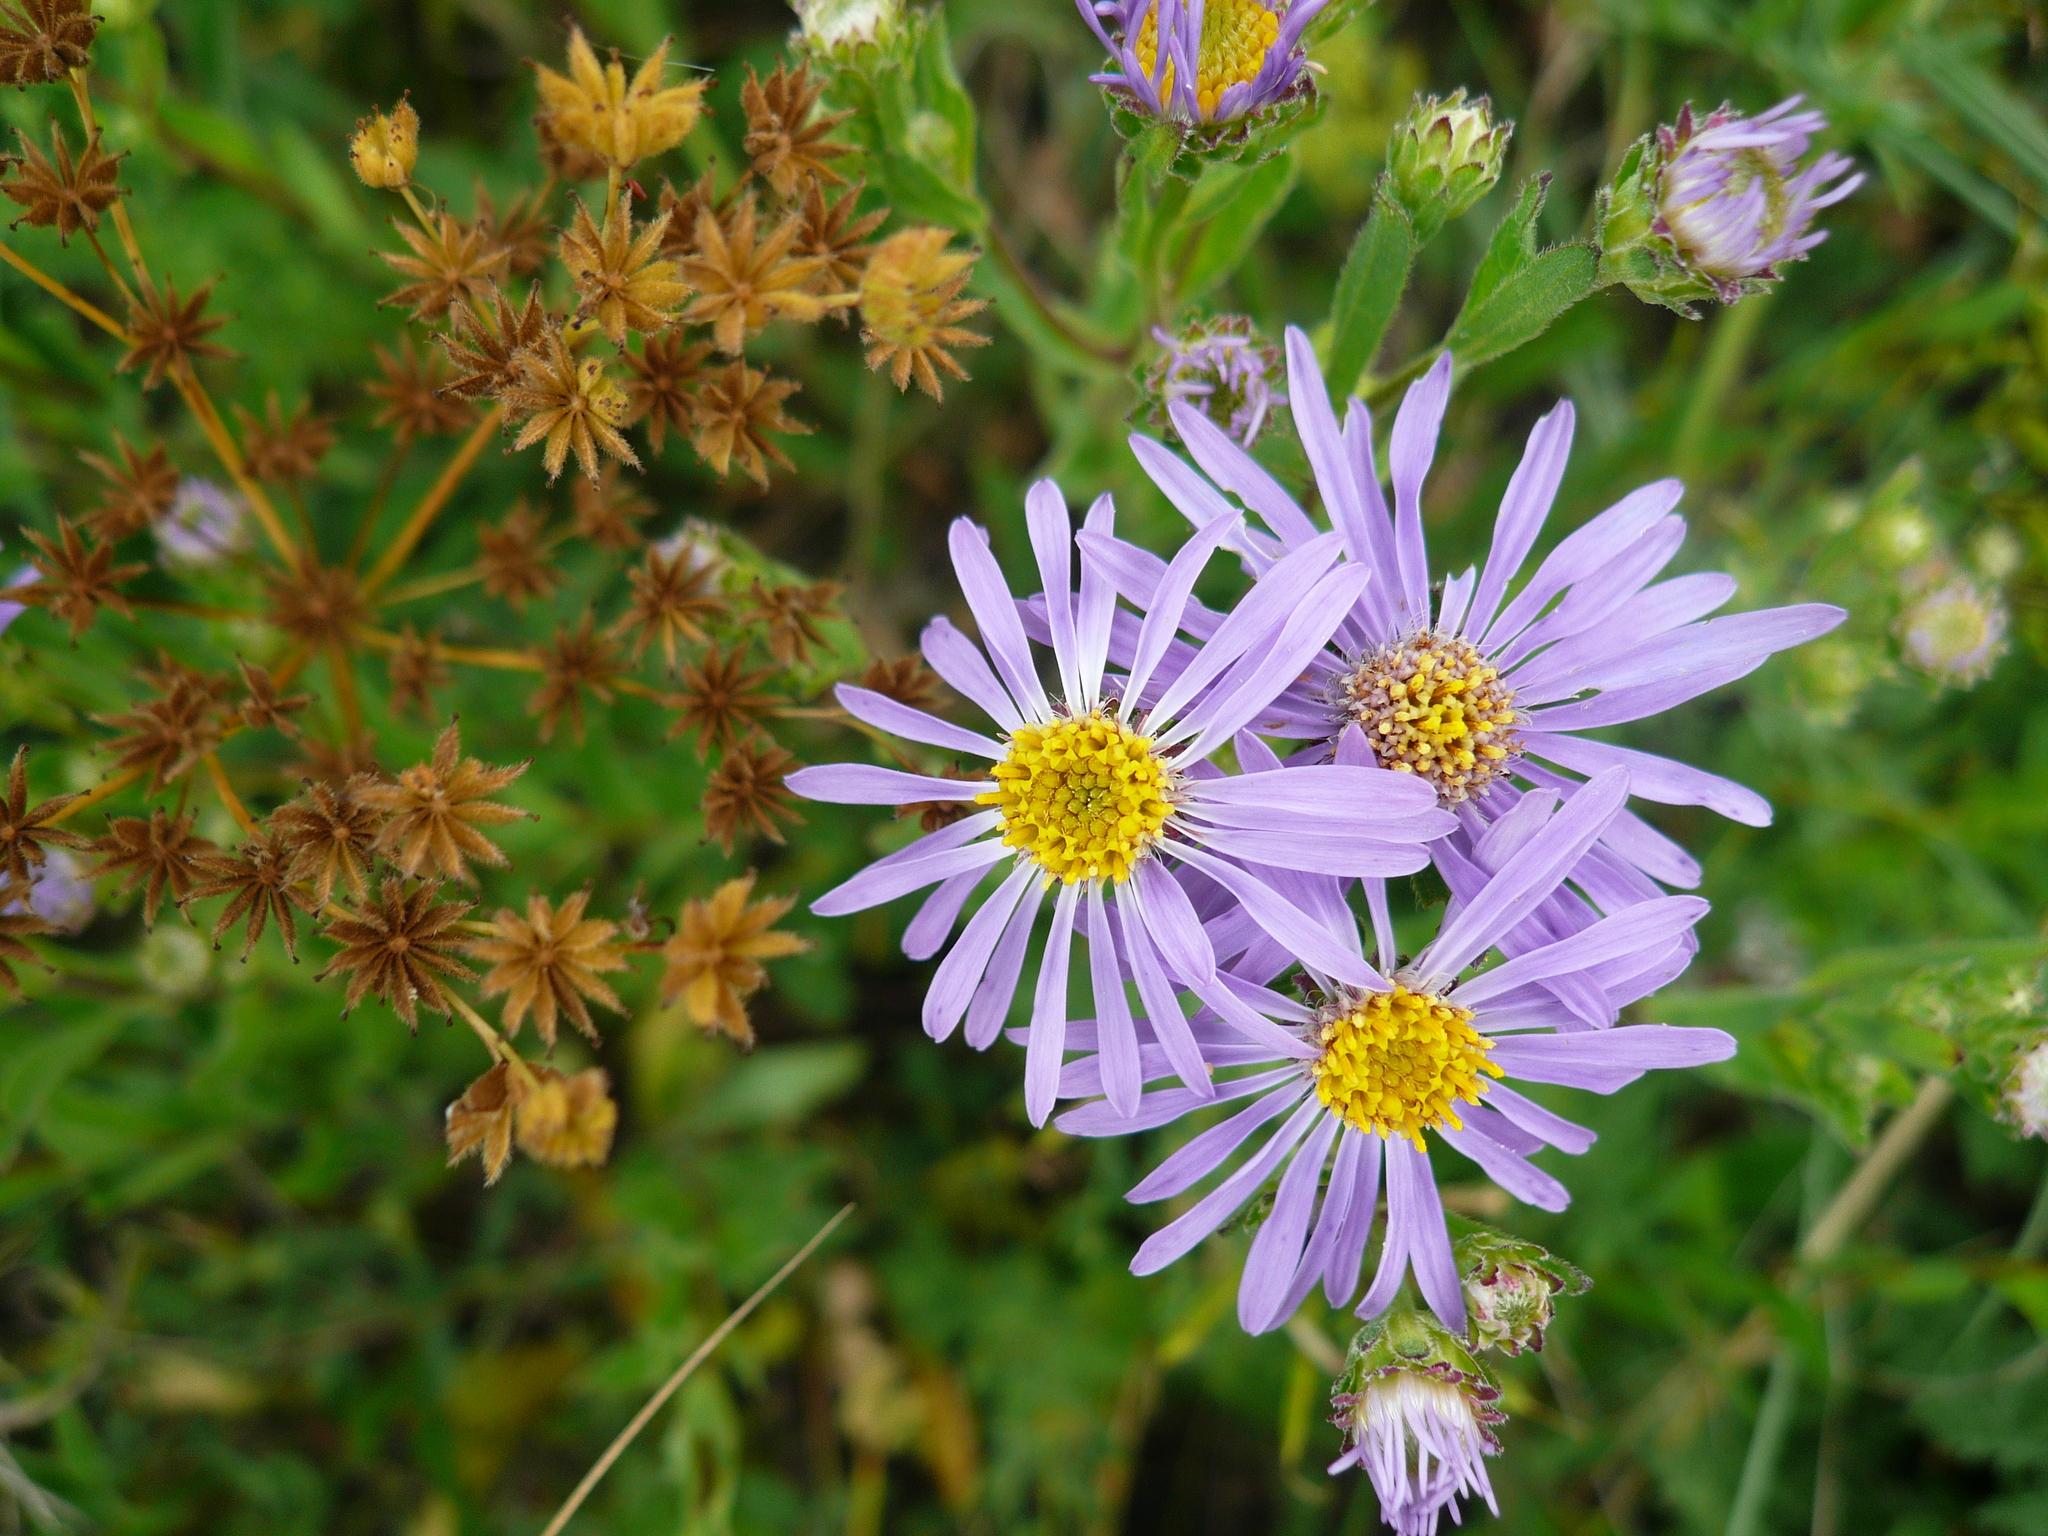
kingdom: Plantae
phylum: Tracheophyta
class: Magnoliopsida
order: Asterales
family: Asteraceae
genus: Aster
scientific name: Aster amellus
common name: European michaelmas daisy
